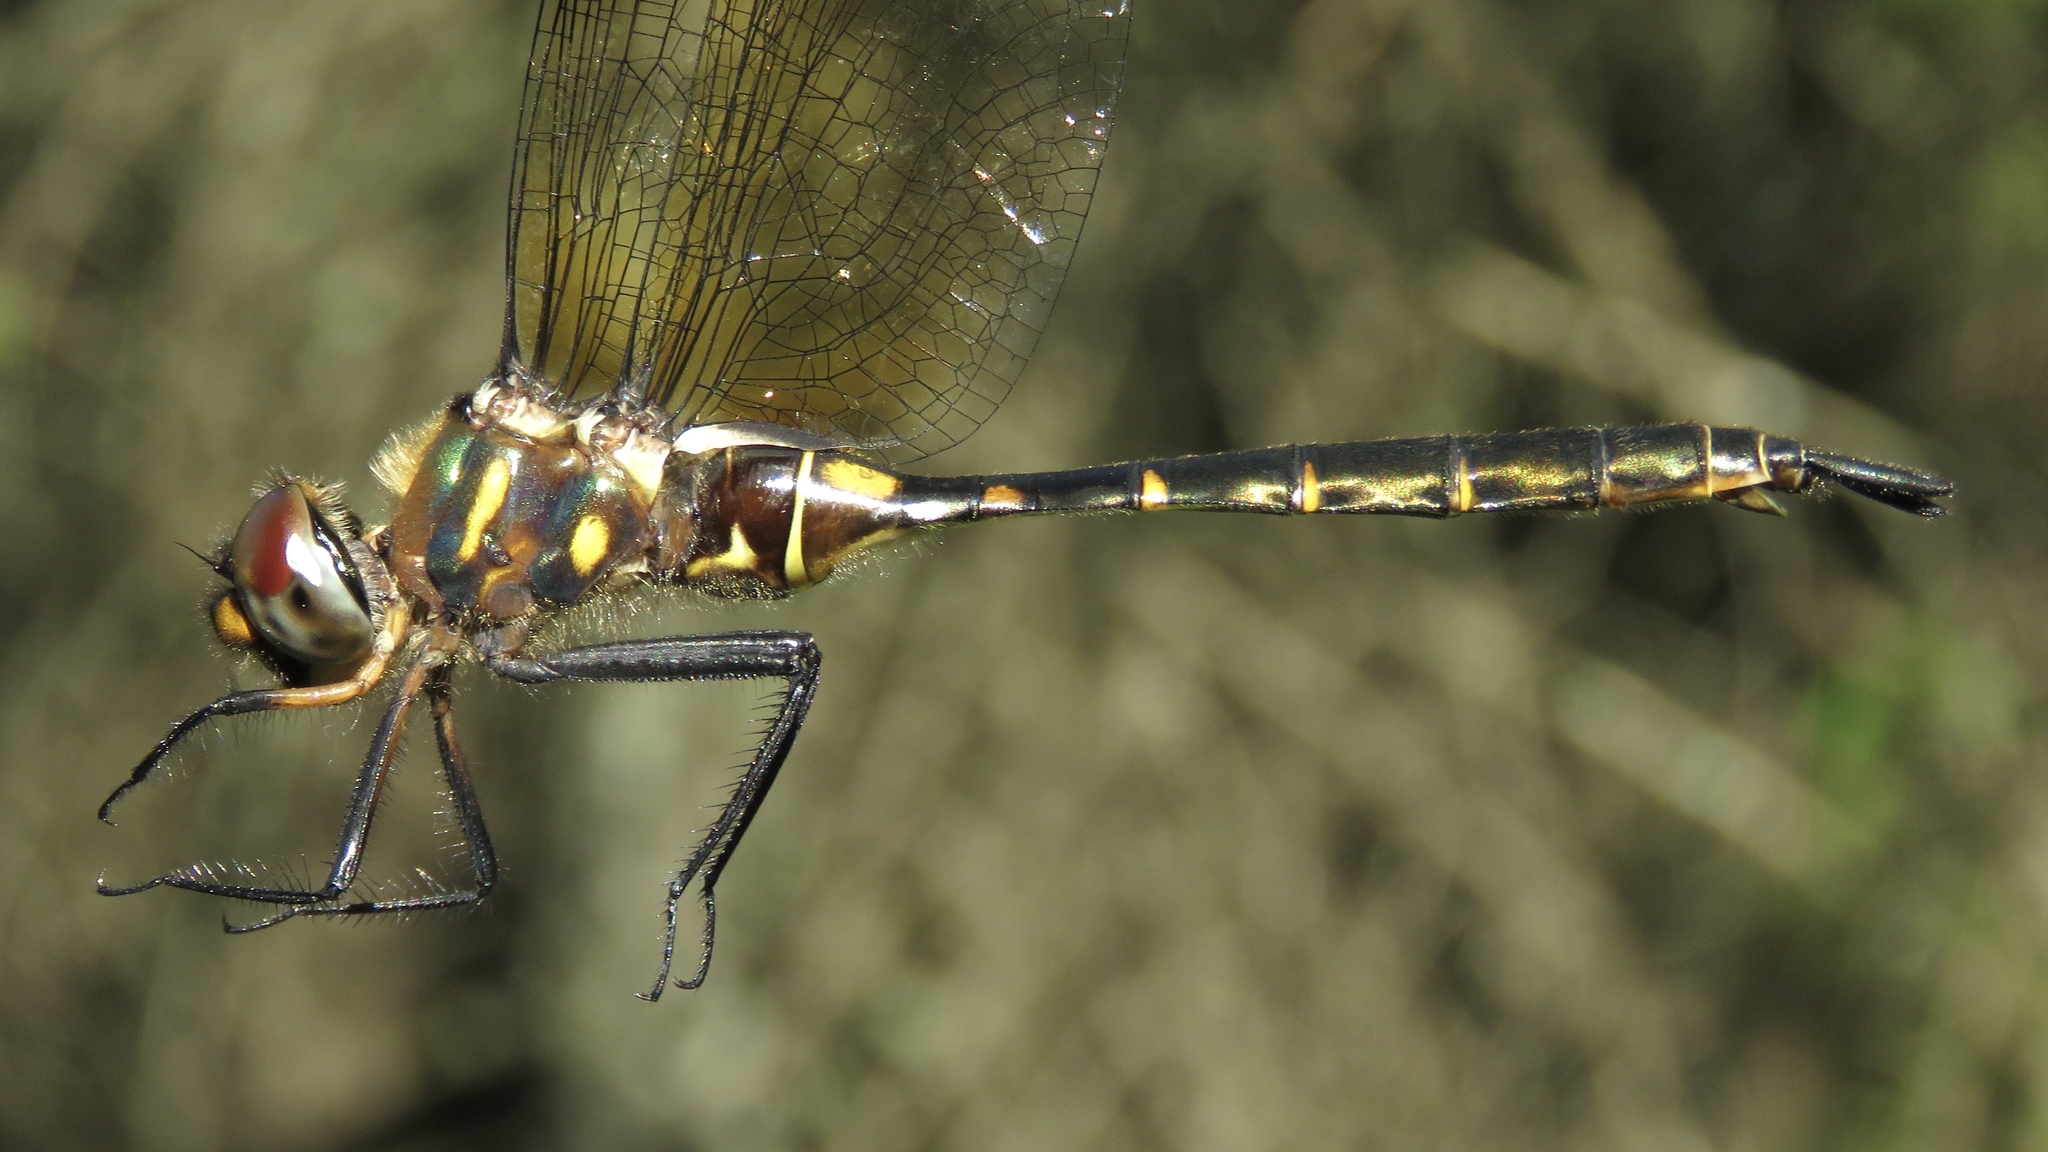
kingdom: Animalia
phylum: Arthropoda
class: Insecta
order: Odonata
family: Corduliidae
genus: Somatochlora
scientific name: Somatochlora walshii
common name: Brush-tipped emerald
